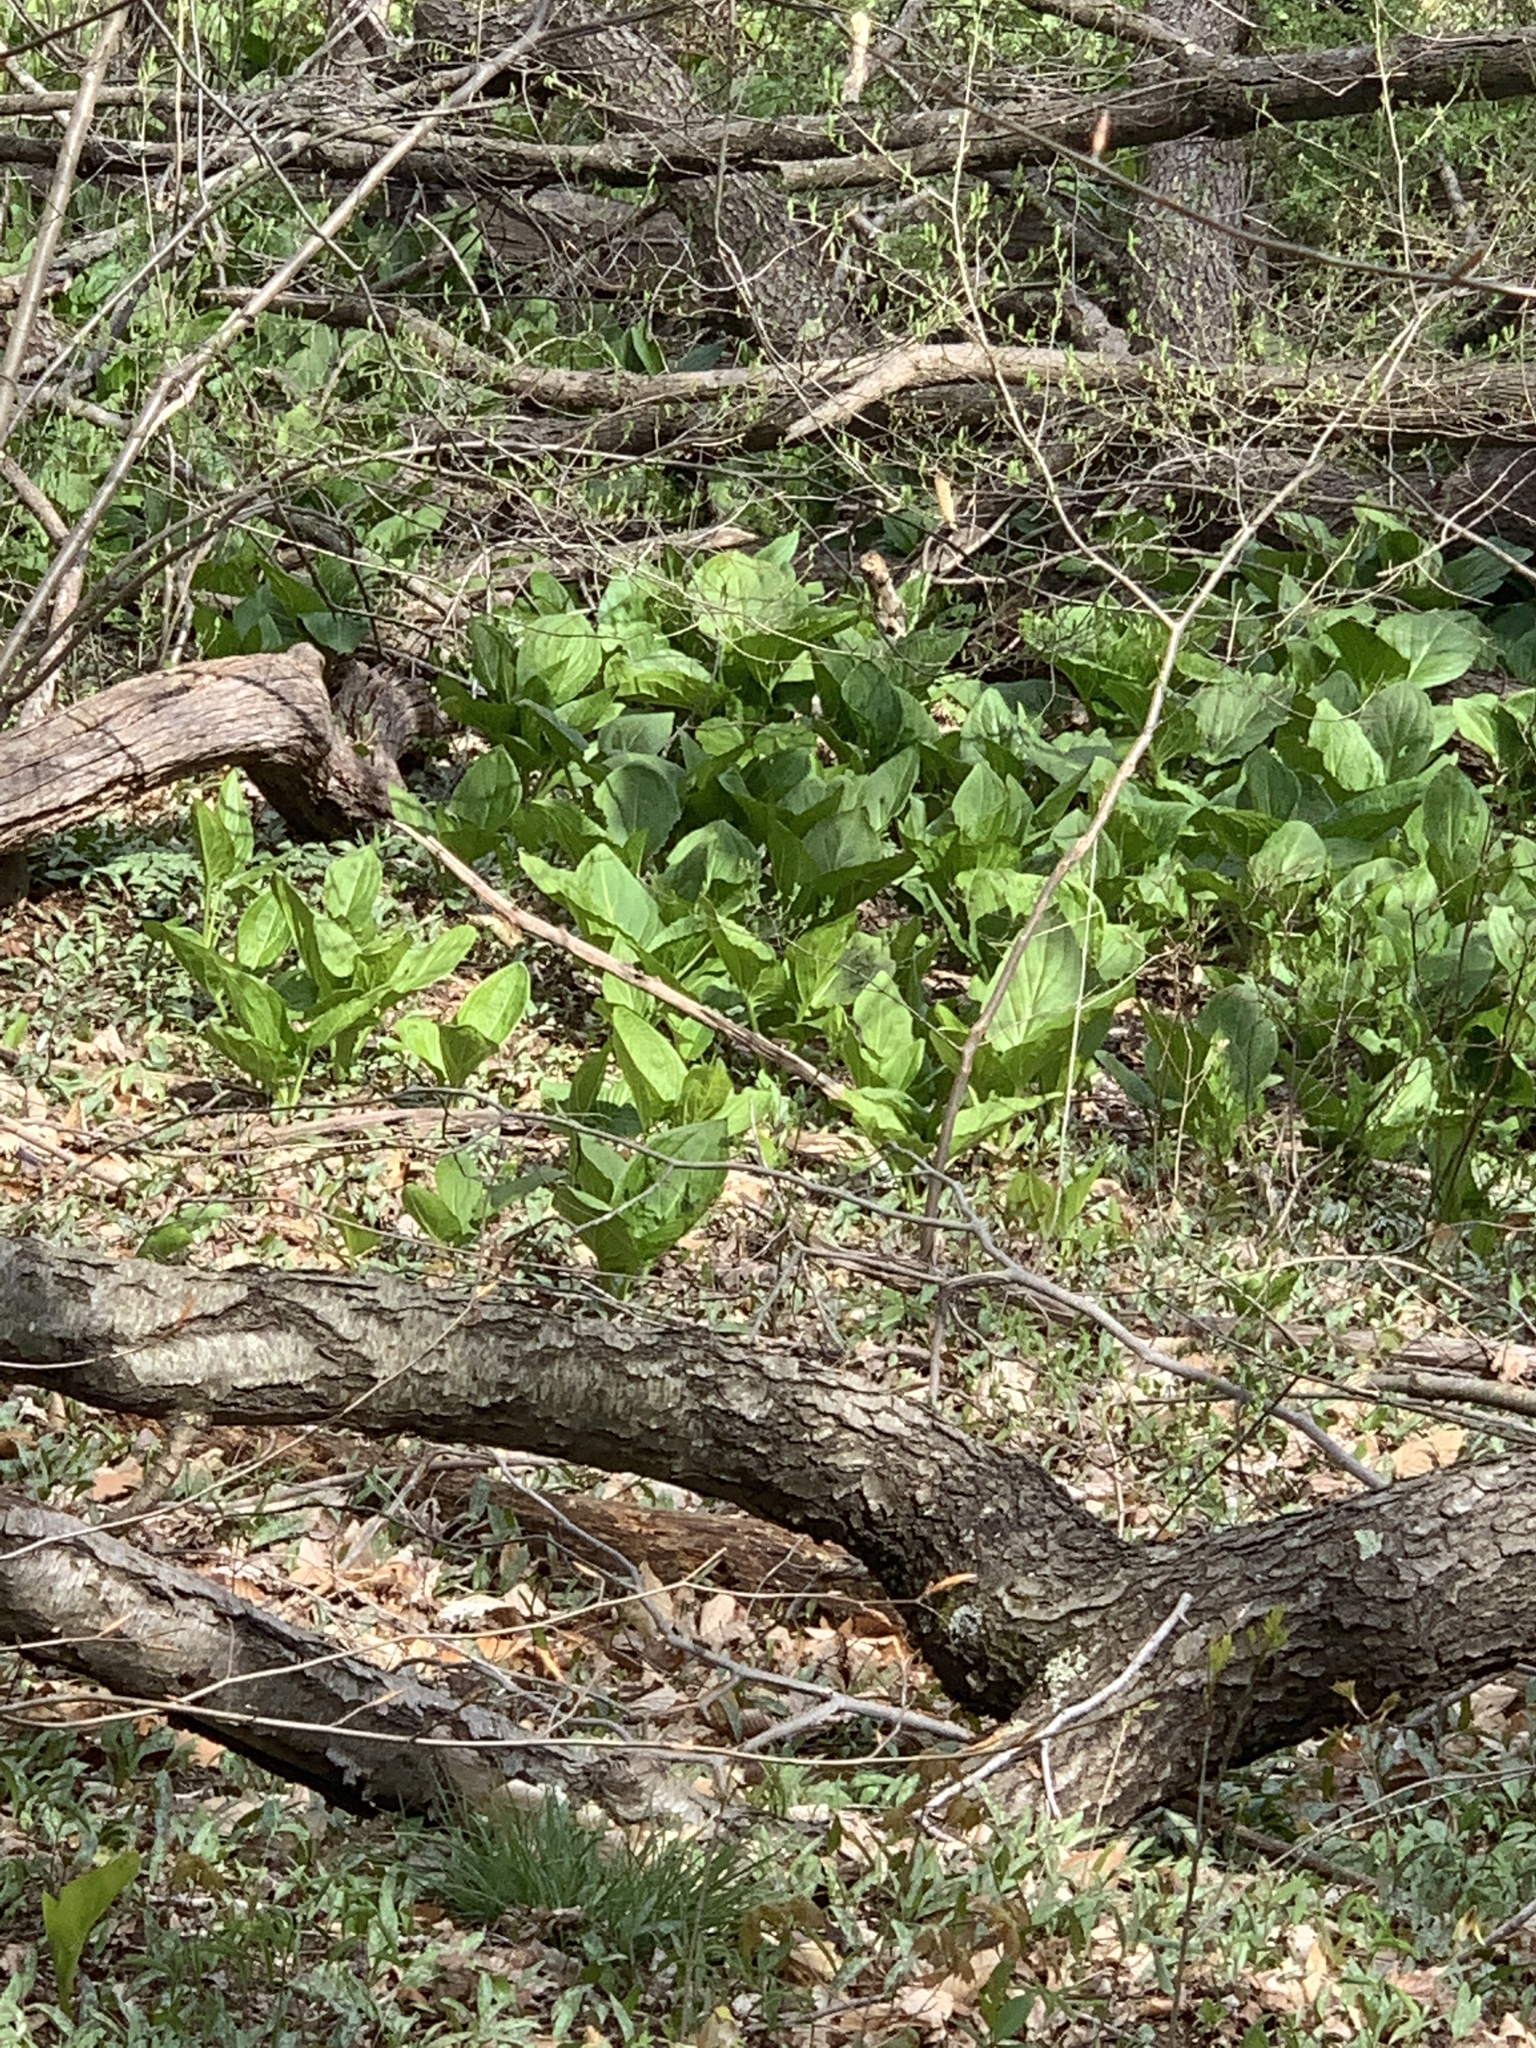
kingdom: Plantae
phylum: Tracheophyta
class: Liliopsida
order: Alismatales
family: Araceae
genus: Symplocarpus
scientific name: Symplocarpus foetidus
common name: Eastern skunk cabbage
